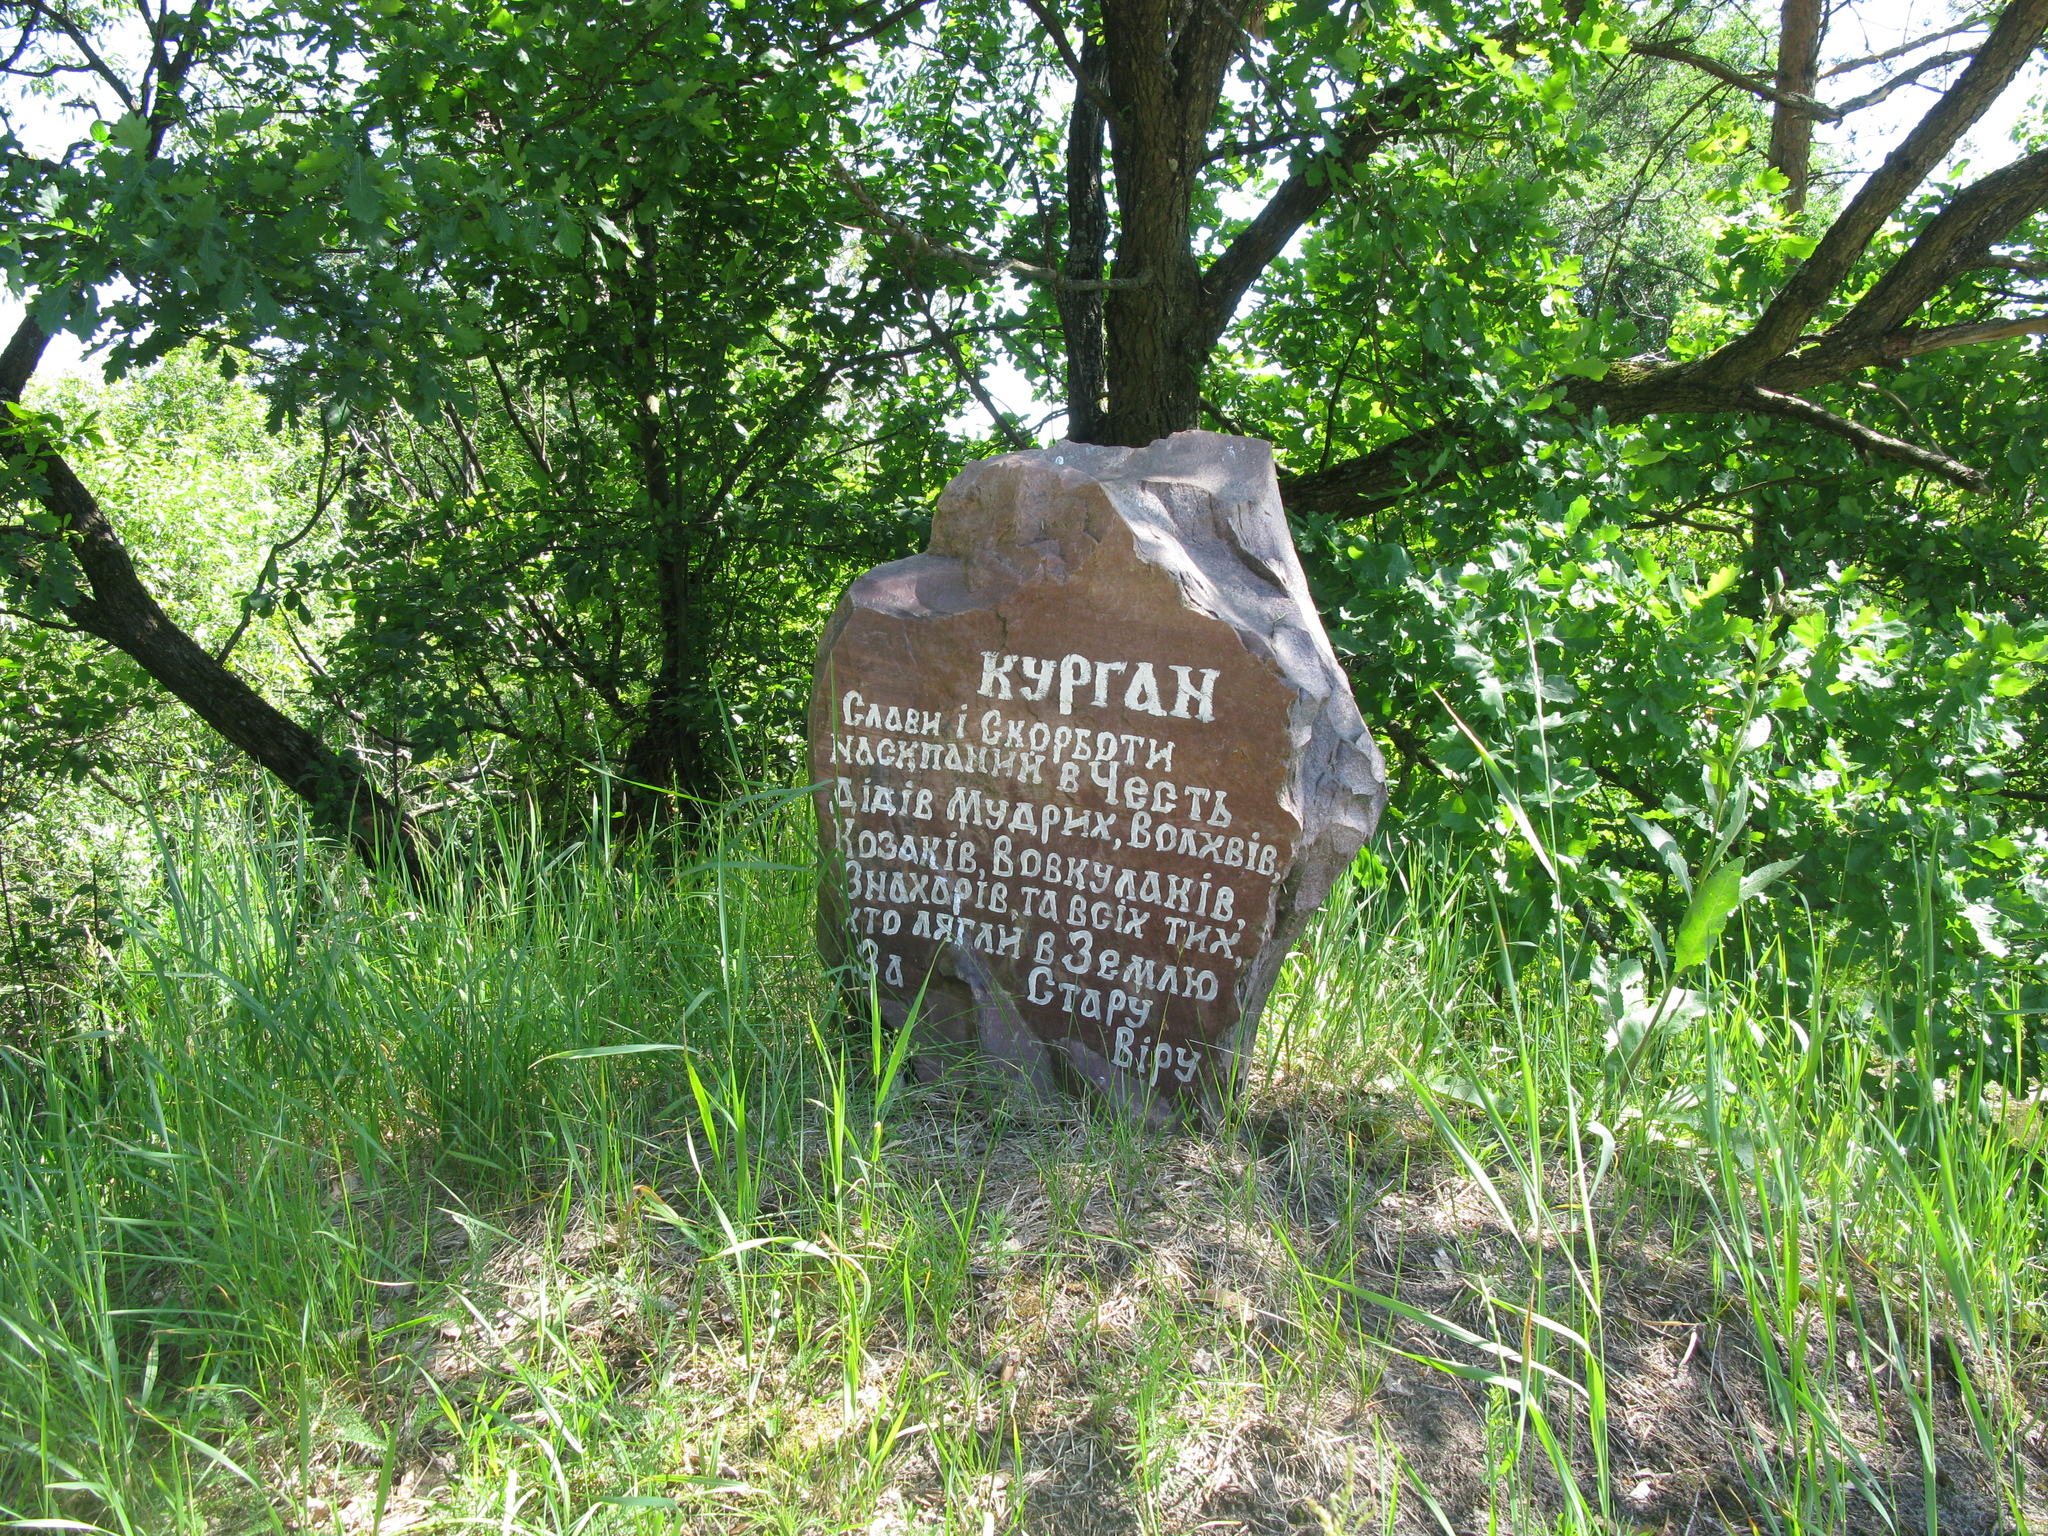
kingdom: Plantae
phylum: Tracheophyta
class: Magnoliopsida
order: Fagales
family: Fagaceae
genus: Quercus
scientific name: Quercus robur
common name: Pedunculate oak
